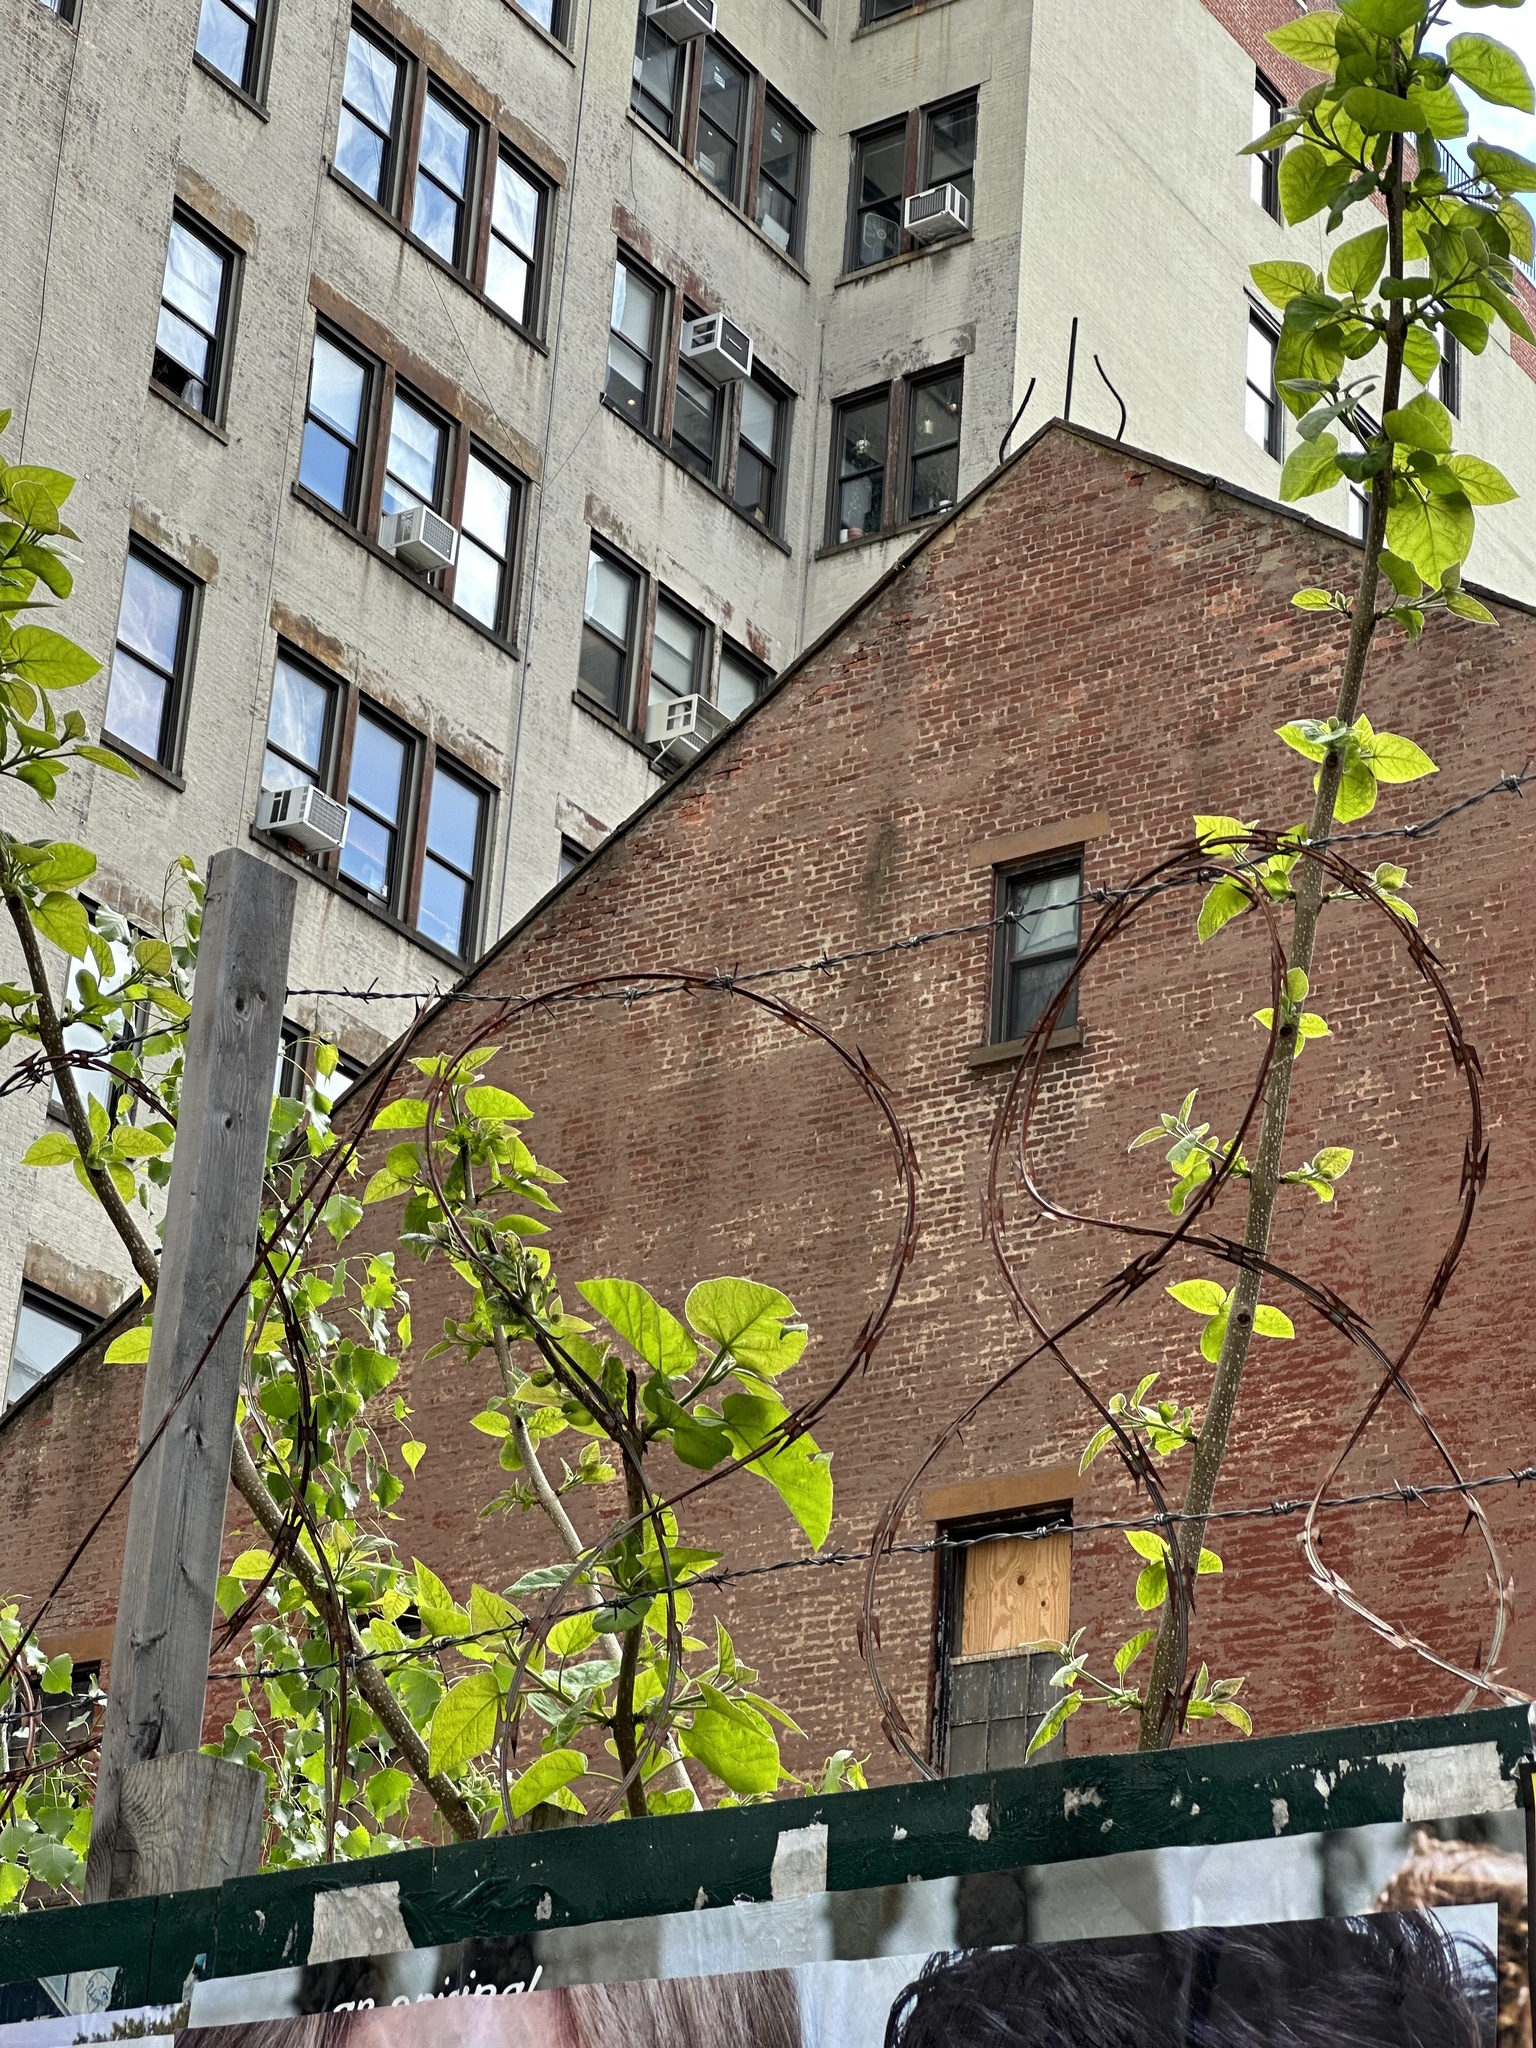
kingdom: Plantae
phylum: Tracheophyta
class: Magnoliopsida
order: Lamiales
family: Paulowniaceae
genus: Paulownia
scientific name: Paulownia tomentosa
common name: Foxglove-tree
